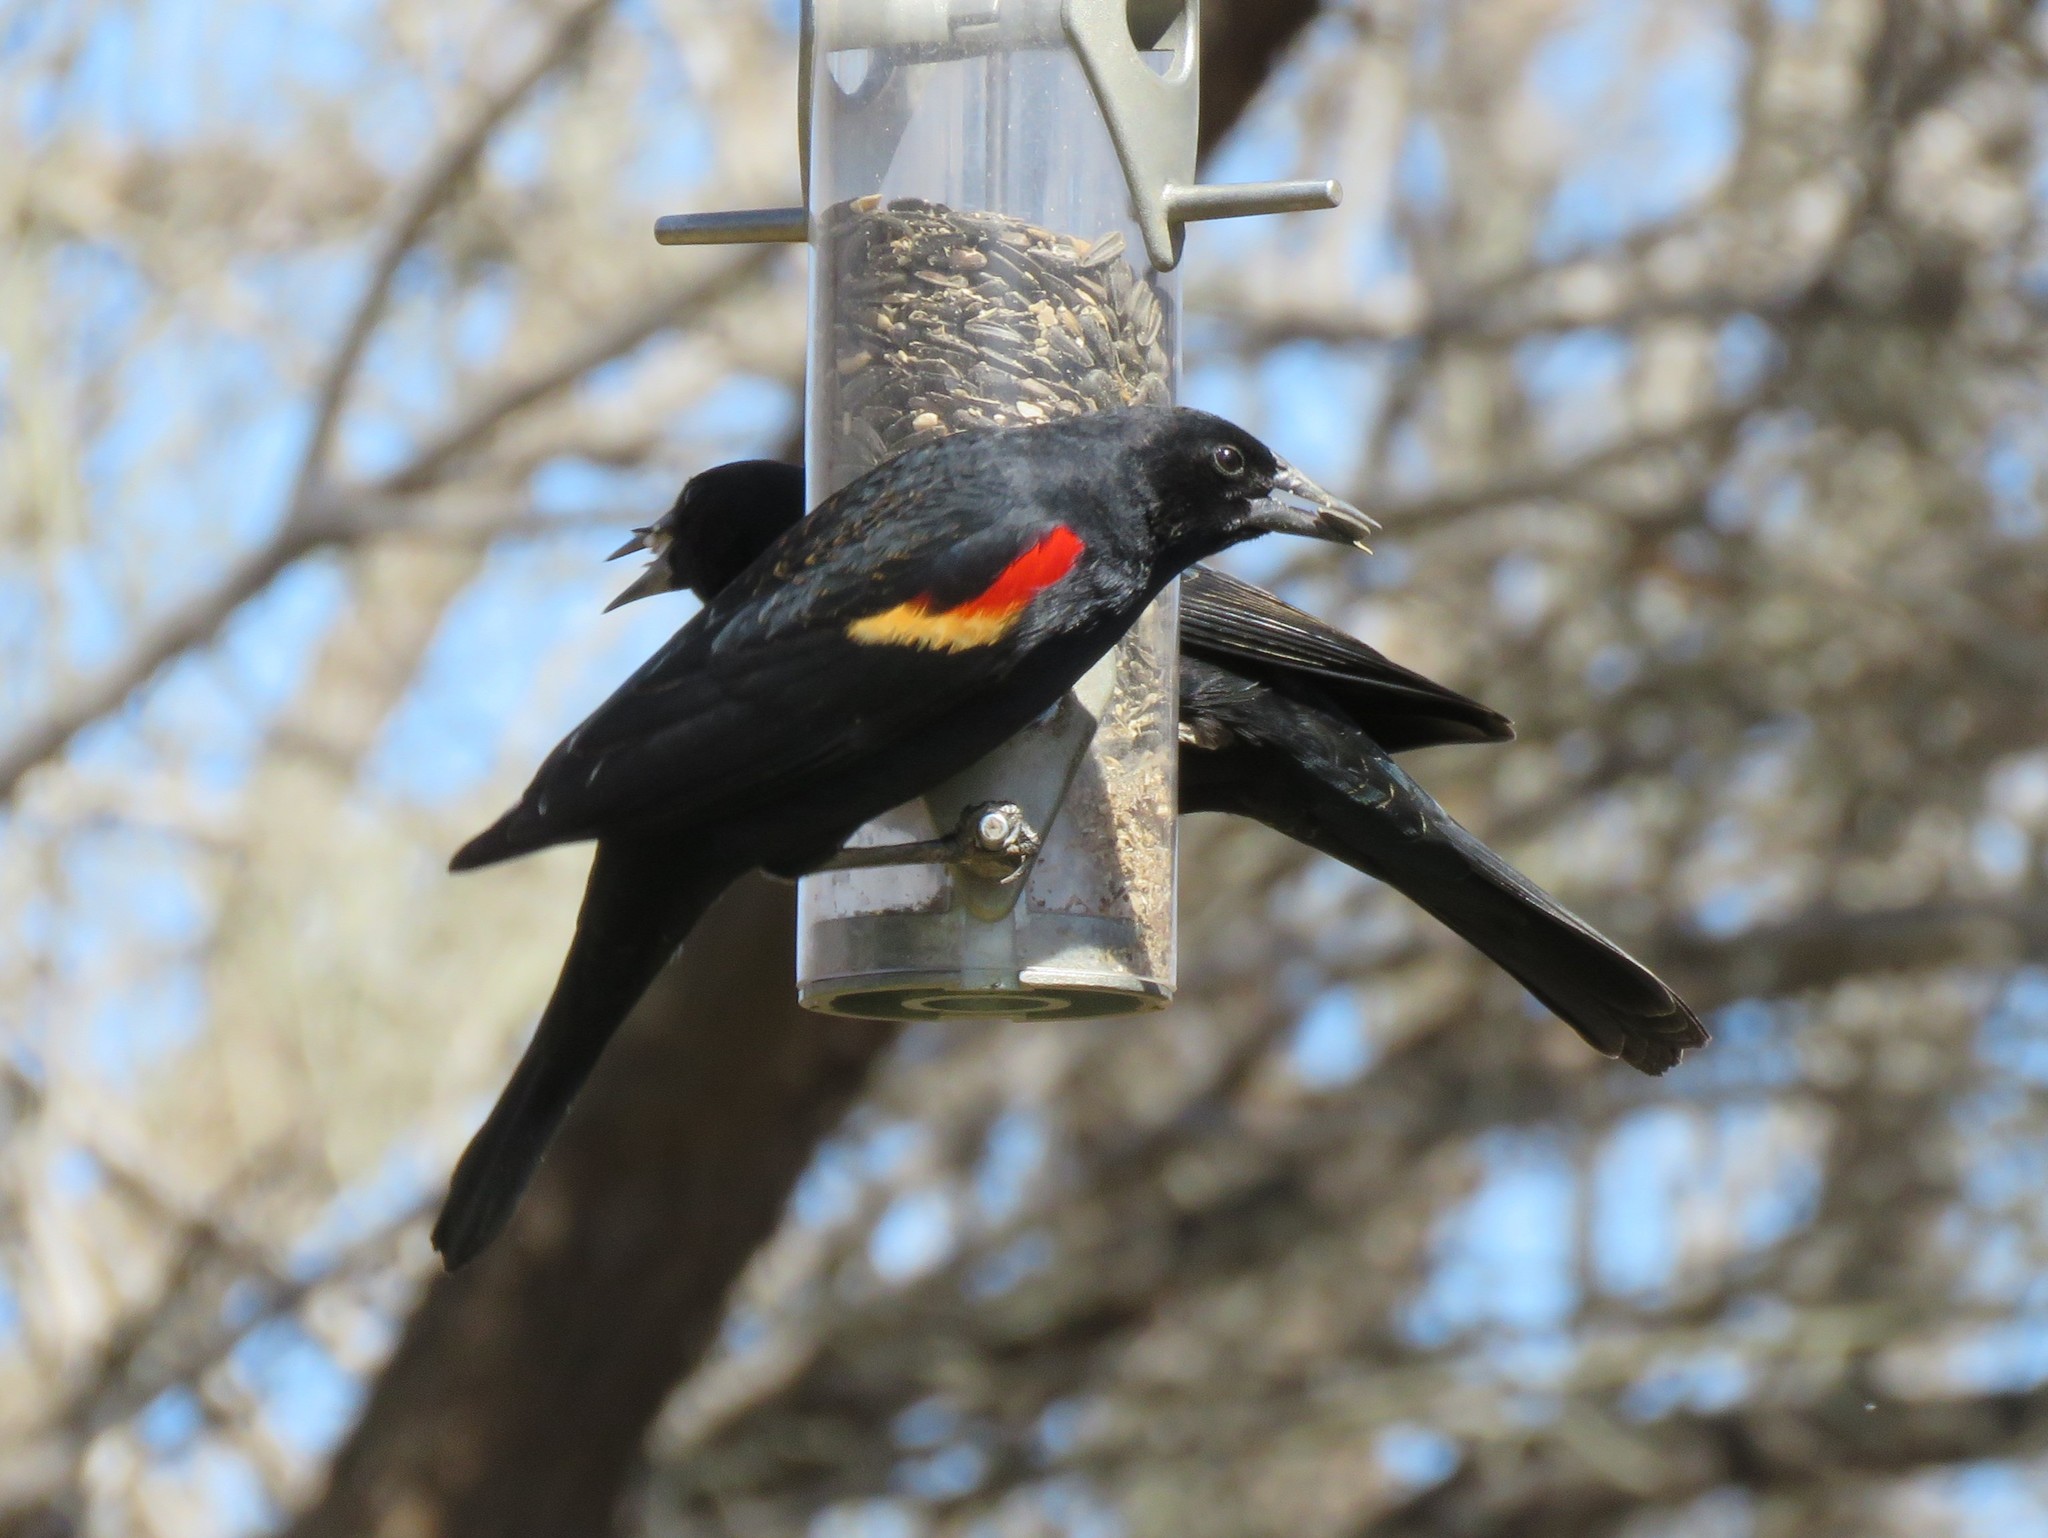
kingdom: Animalia
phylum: Chordata
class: Aves
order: Passeriformes
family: Icteridae
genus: Agelaius
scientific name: Agelaius phoeniceus
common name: Red-winged blackbird
